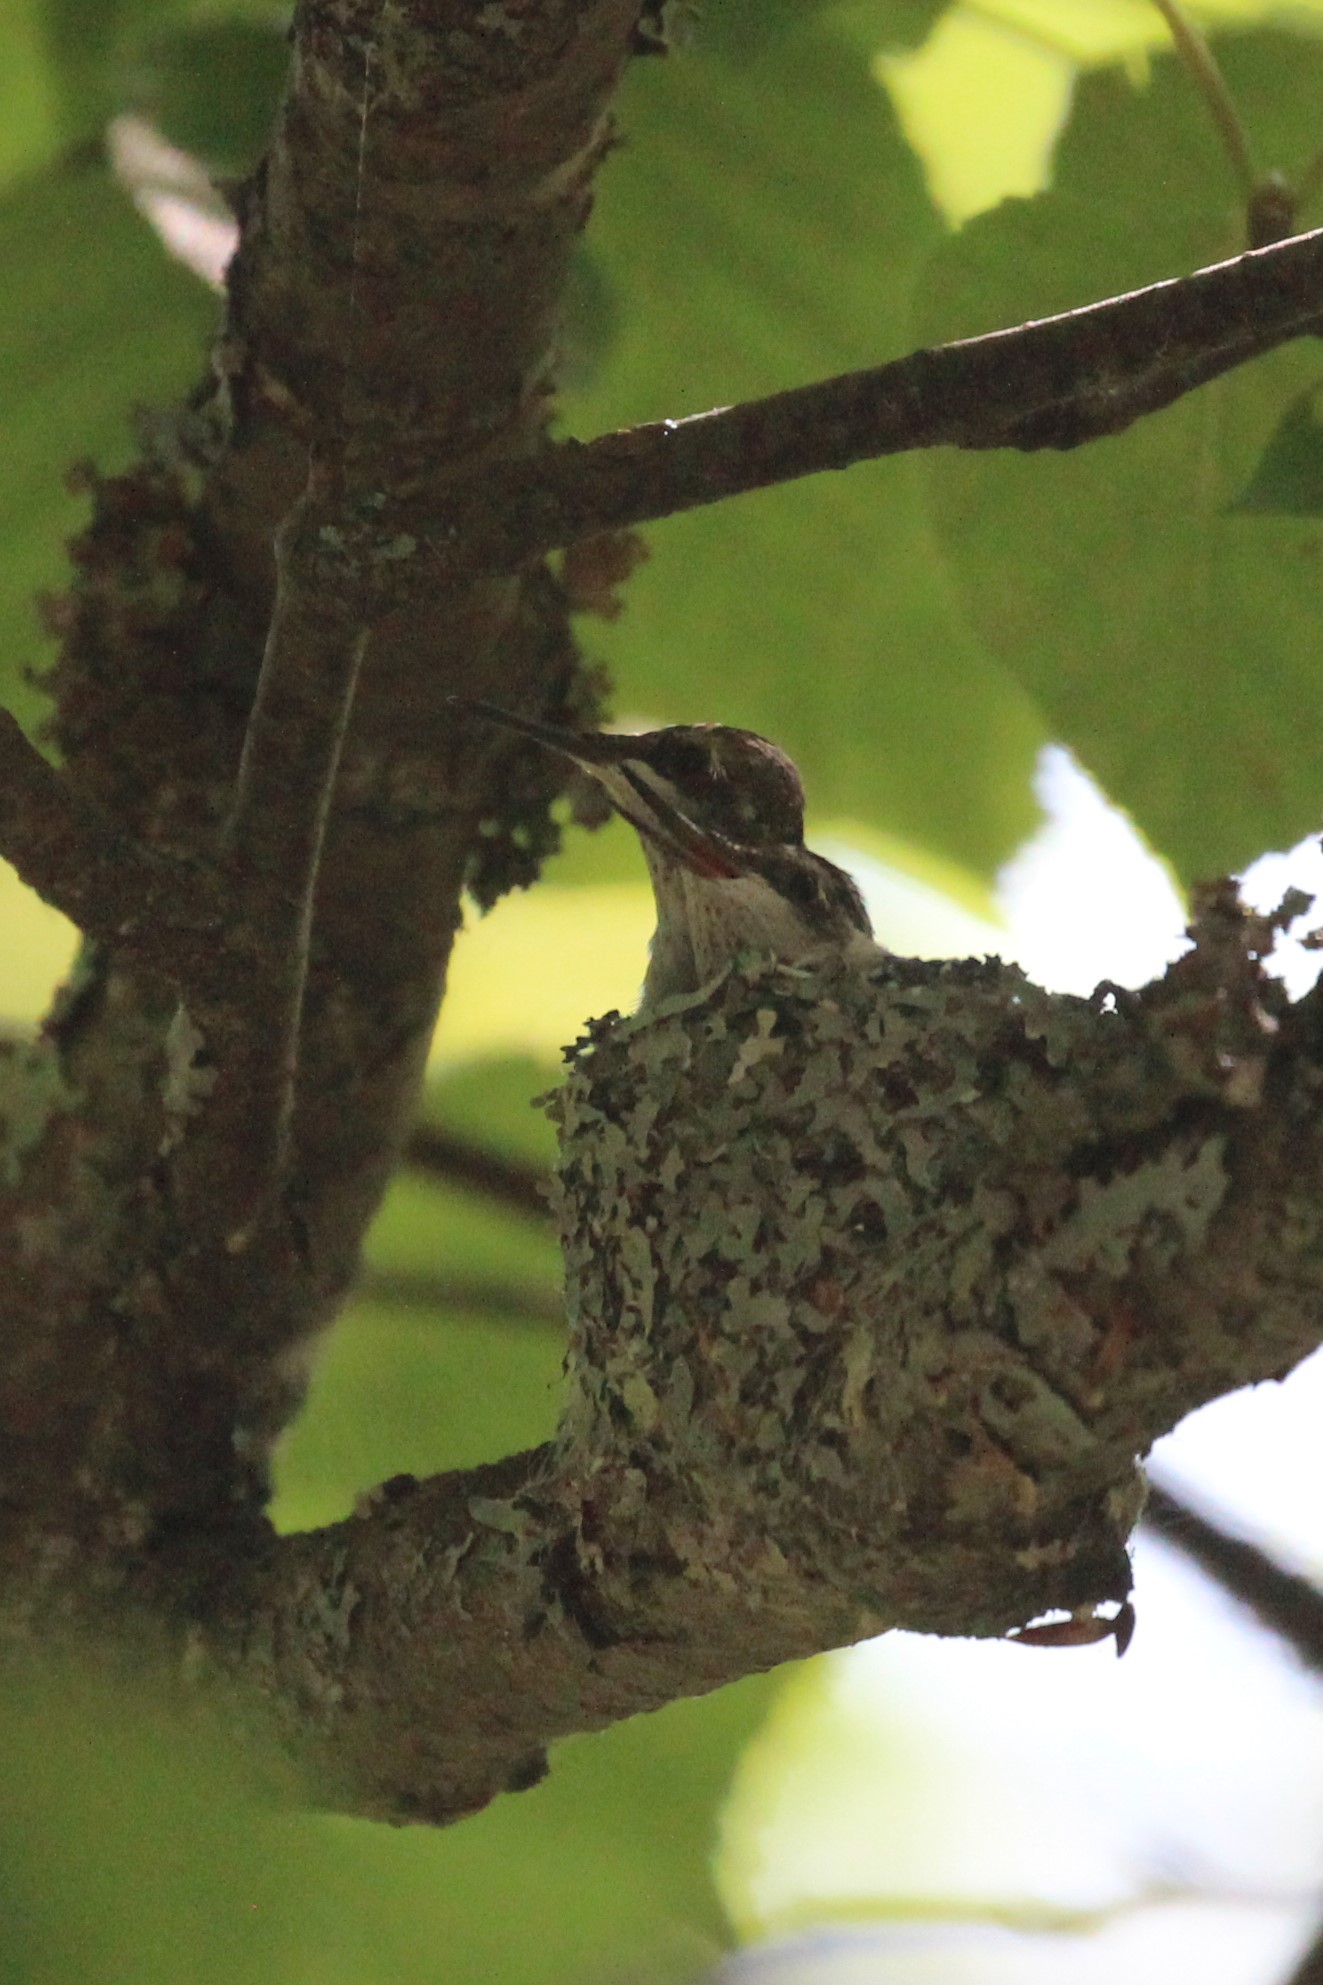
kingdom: Animalia
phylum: Chordata
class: Aves
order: Apodiformes
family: Trochilidae
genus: Archilochus
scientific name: Archilochus colubris
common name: Ruby-throated hummingbird
